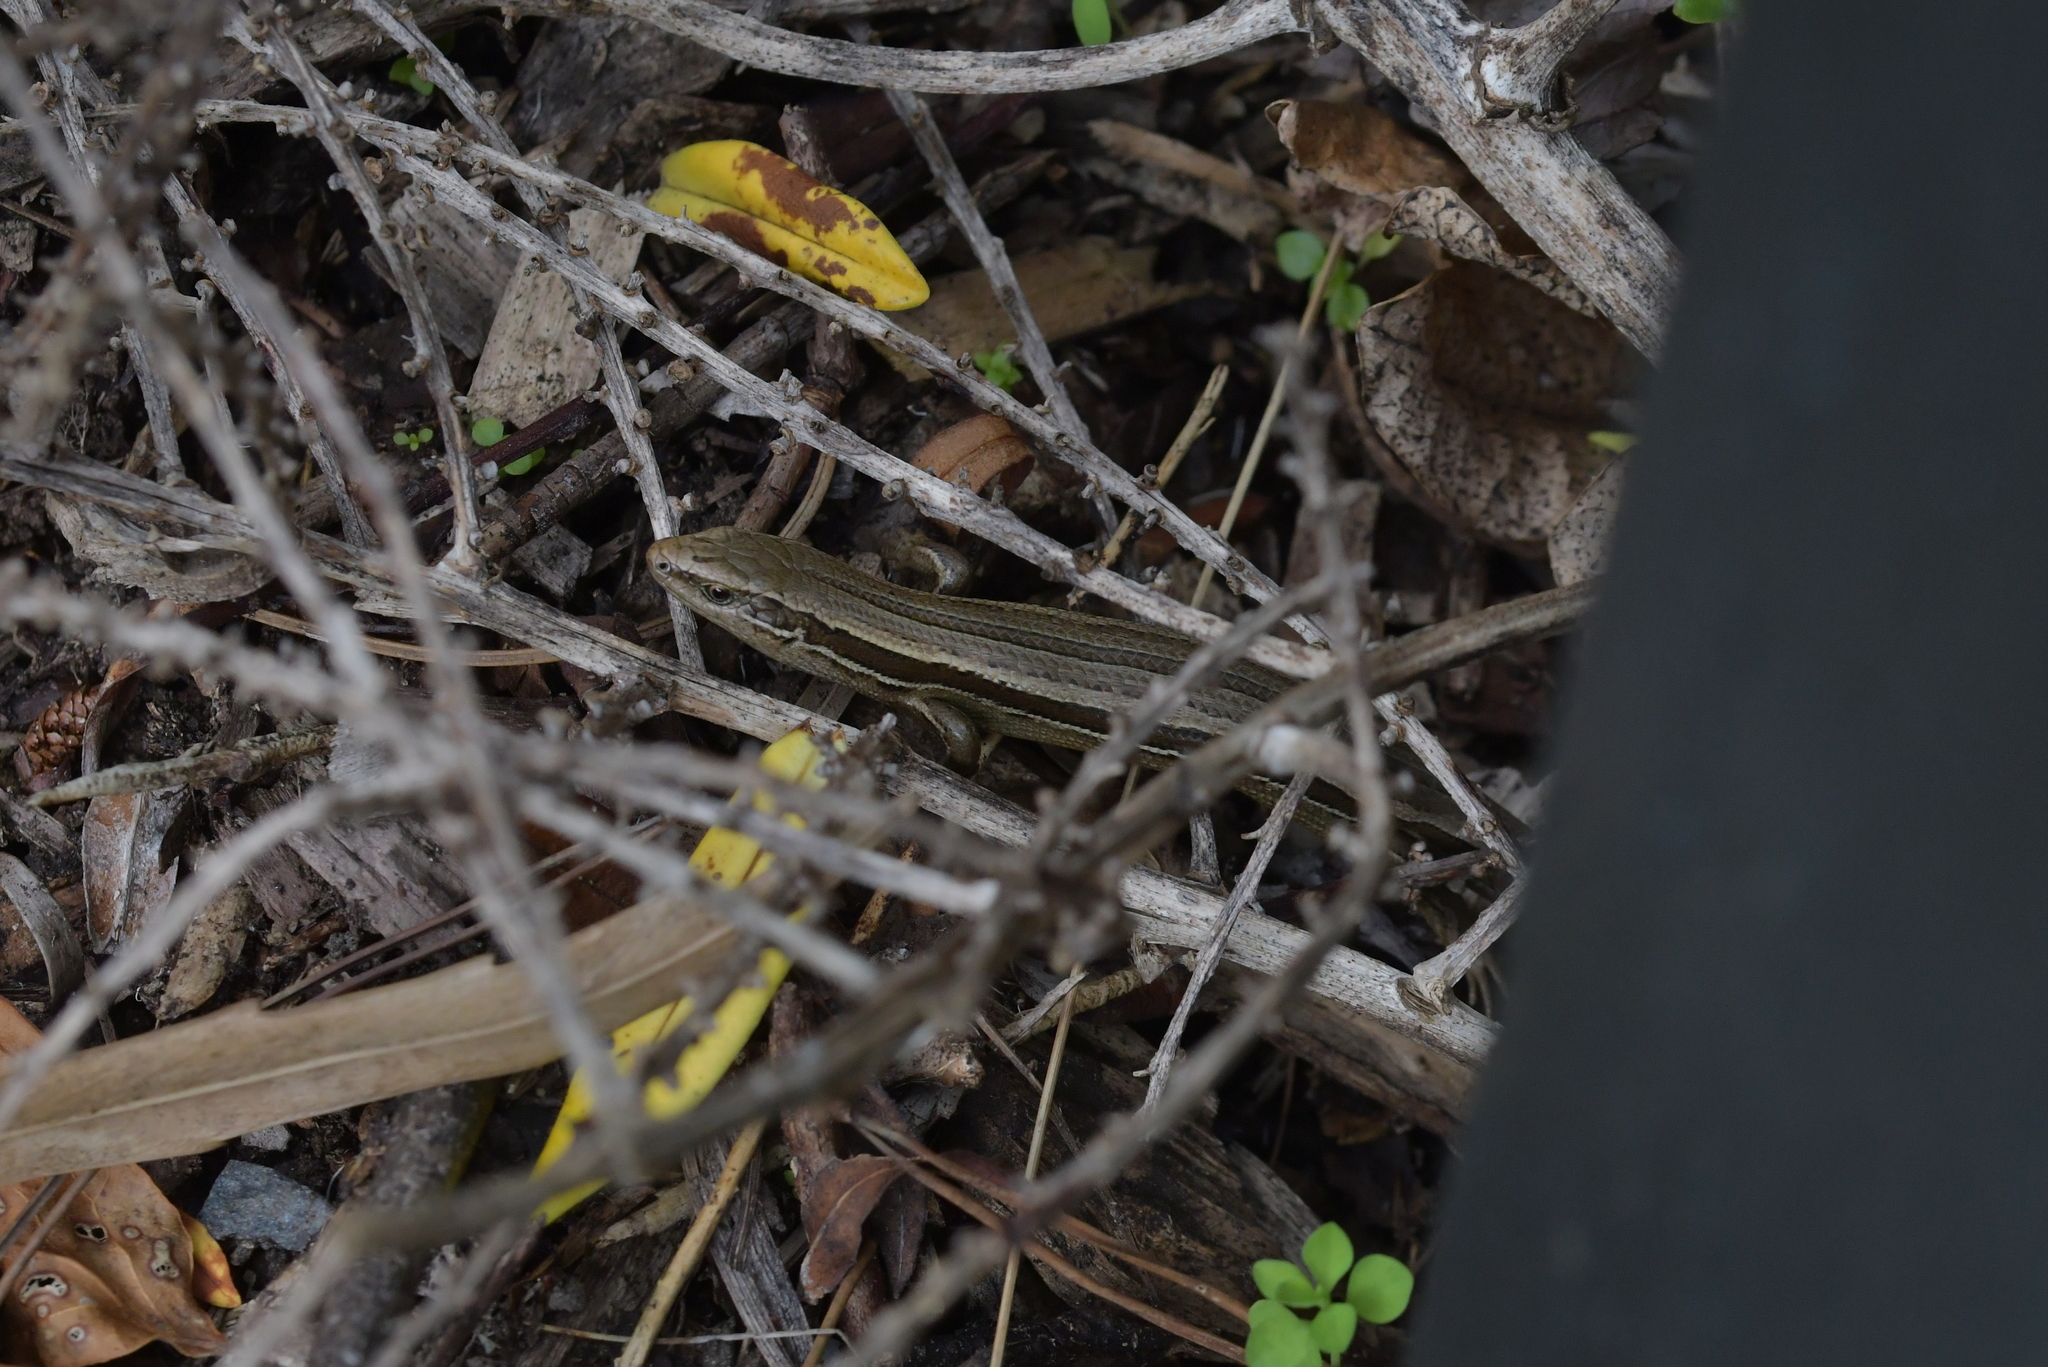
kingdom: Animalia
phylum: Chordata
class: Squamata
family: Scincidae
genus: Oligosoma
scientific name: Oligosoma polychroma
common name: Common new zealand skink
